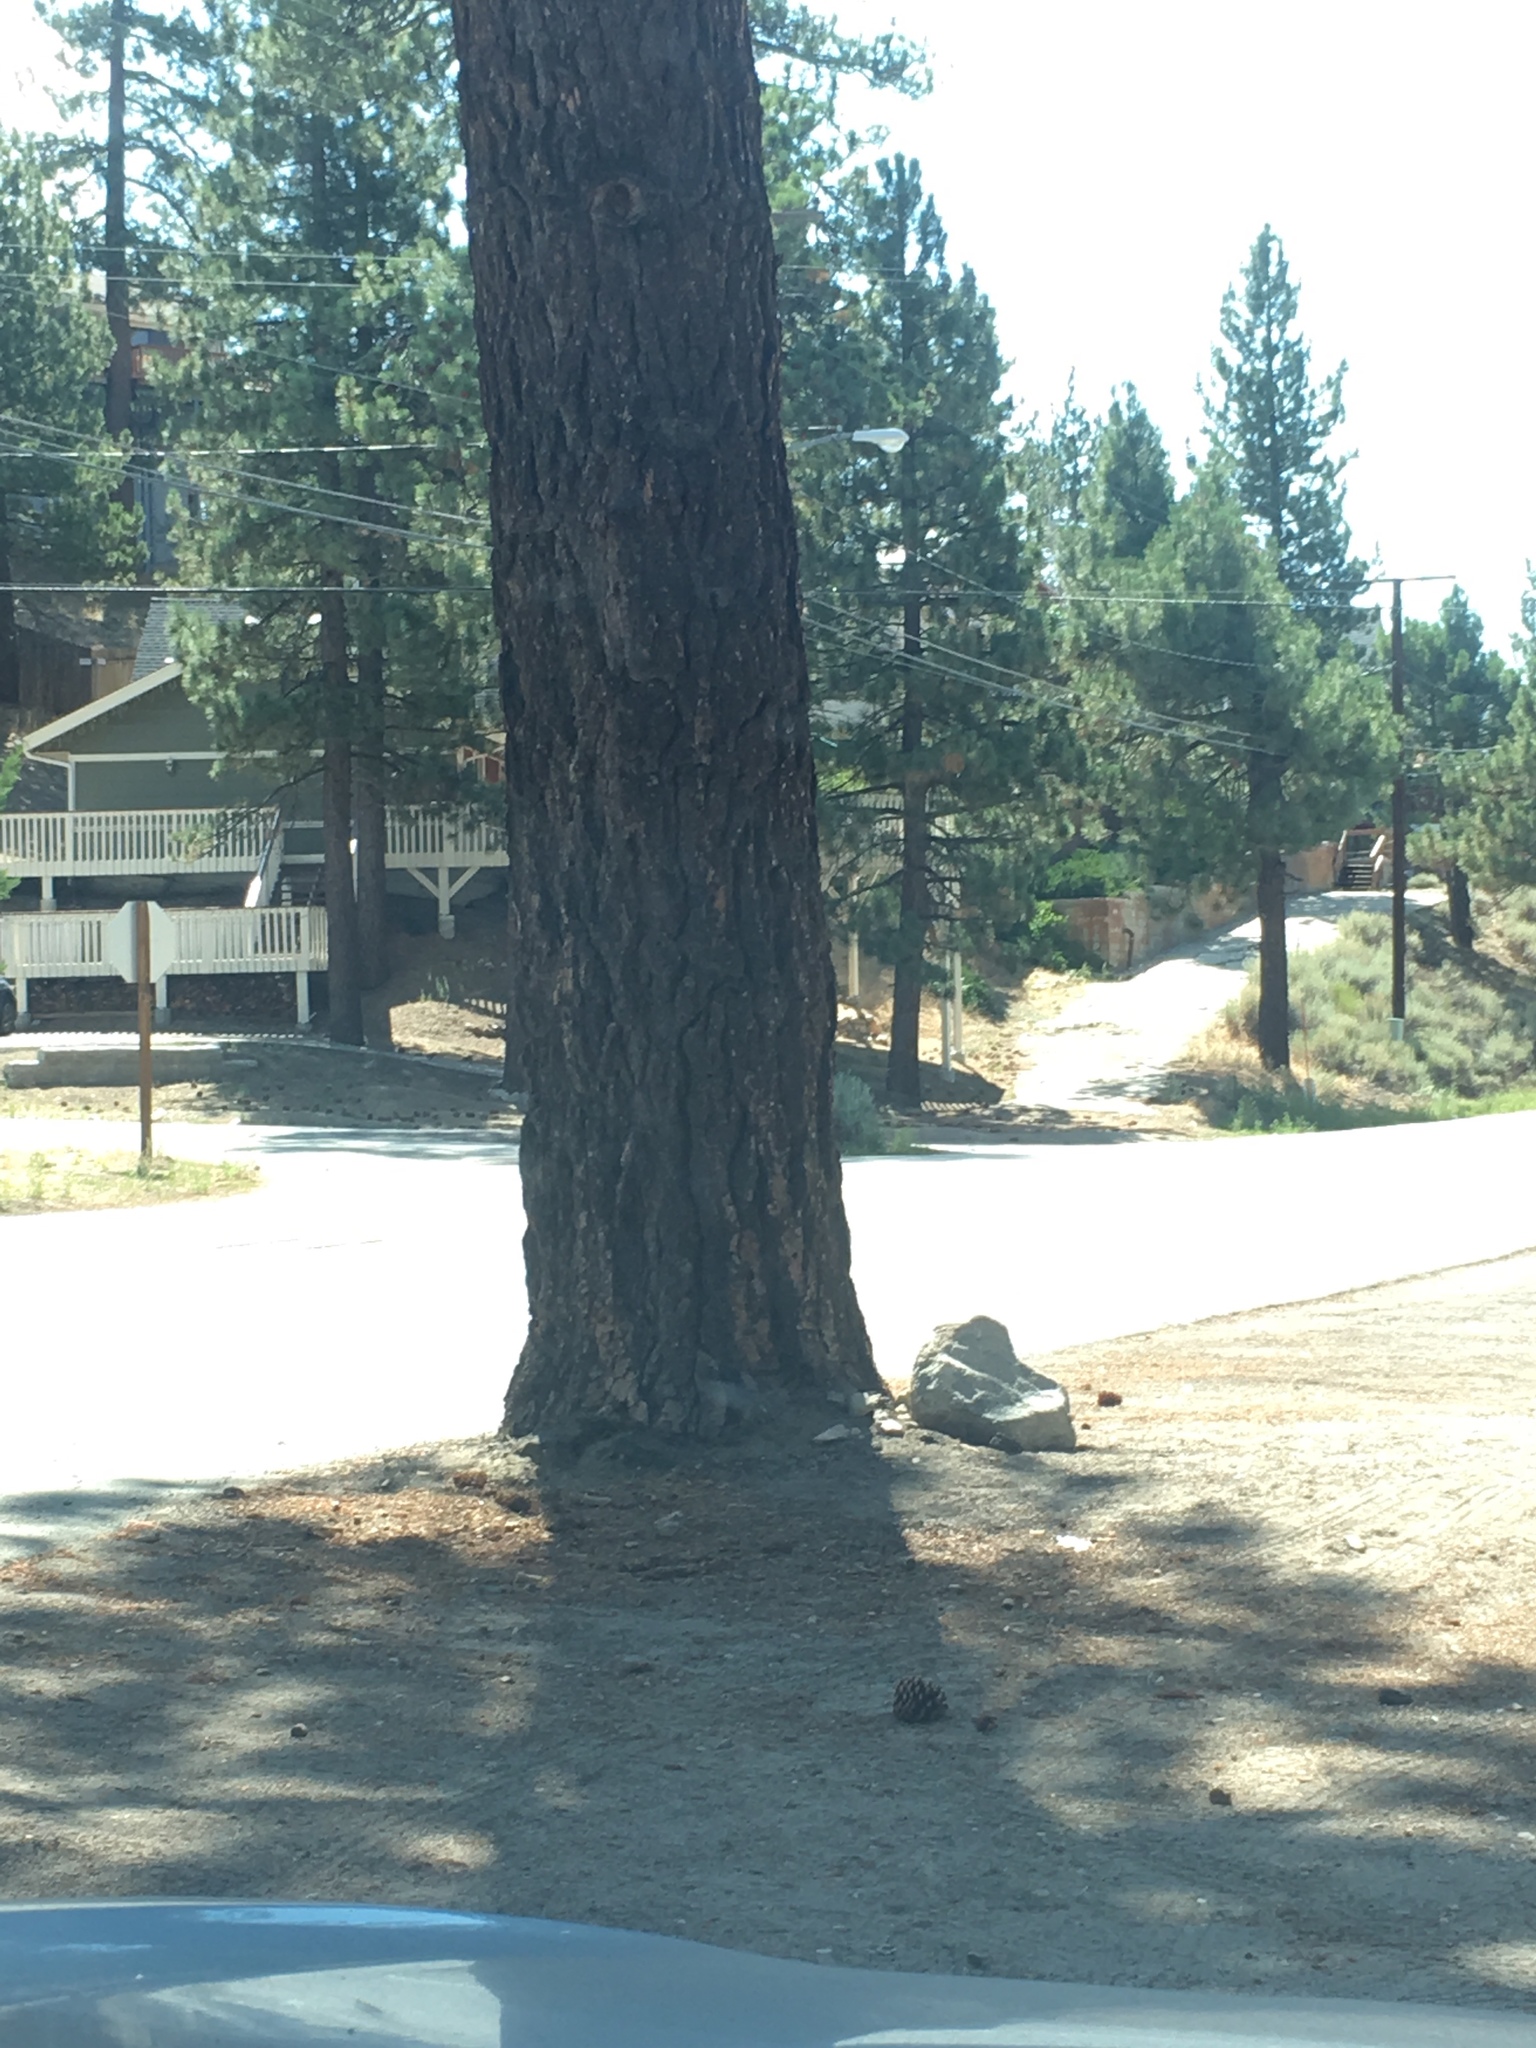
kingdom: Plantae
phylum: Tracheophyta
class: Pinopsida
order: Pinales
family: Pinaceae
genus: Pinus
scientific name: Pinus ponderosa
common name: Western yellow-pine
